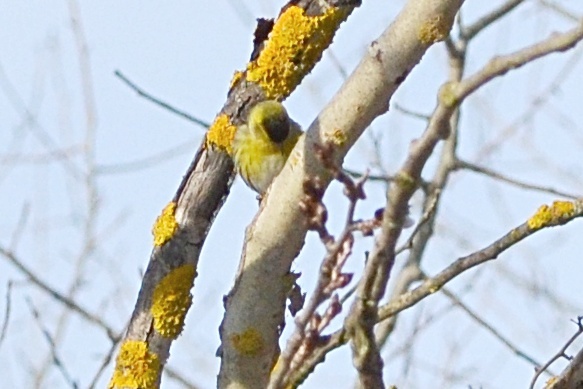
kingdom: Animalia
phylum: Chordata
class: Aves
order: Passeriformes
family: Fringillidae
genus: Spinus
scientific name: Spinus spinus
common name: Eurasian siskin
